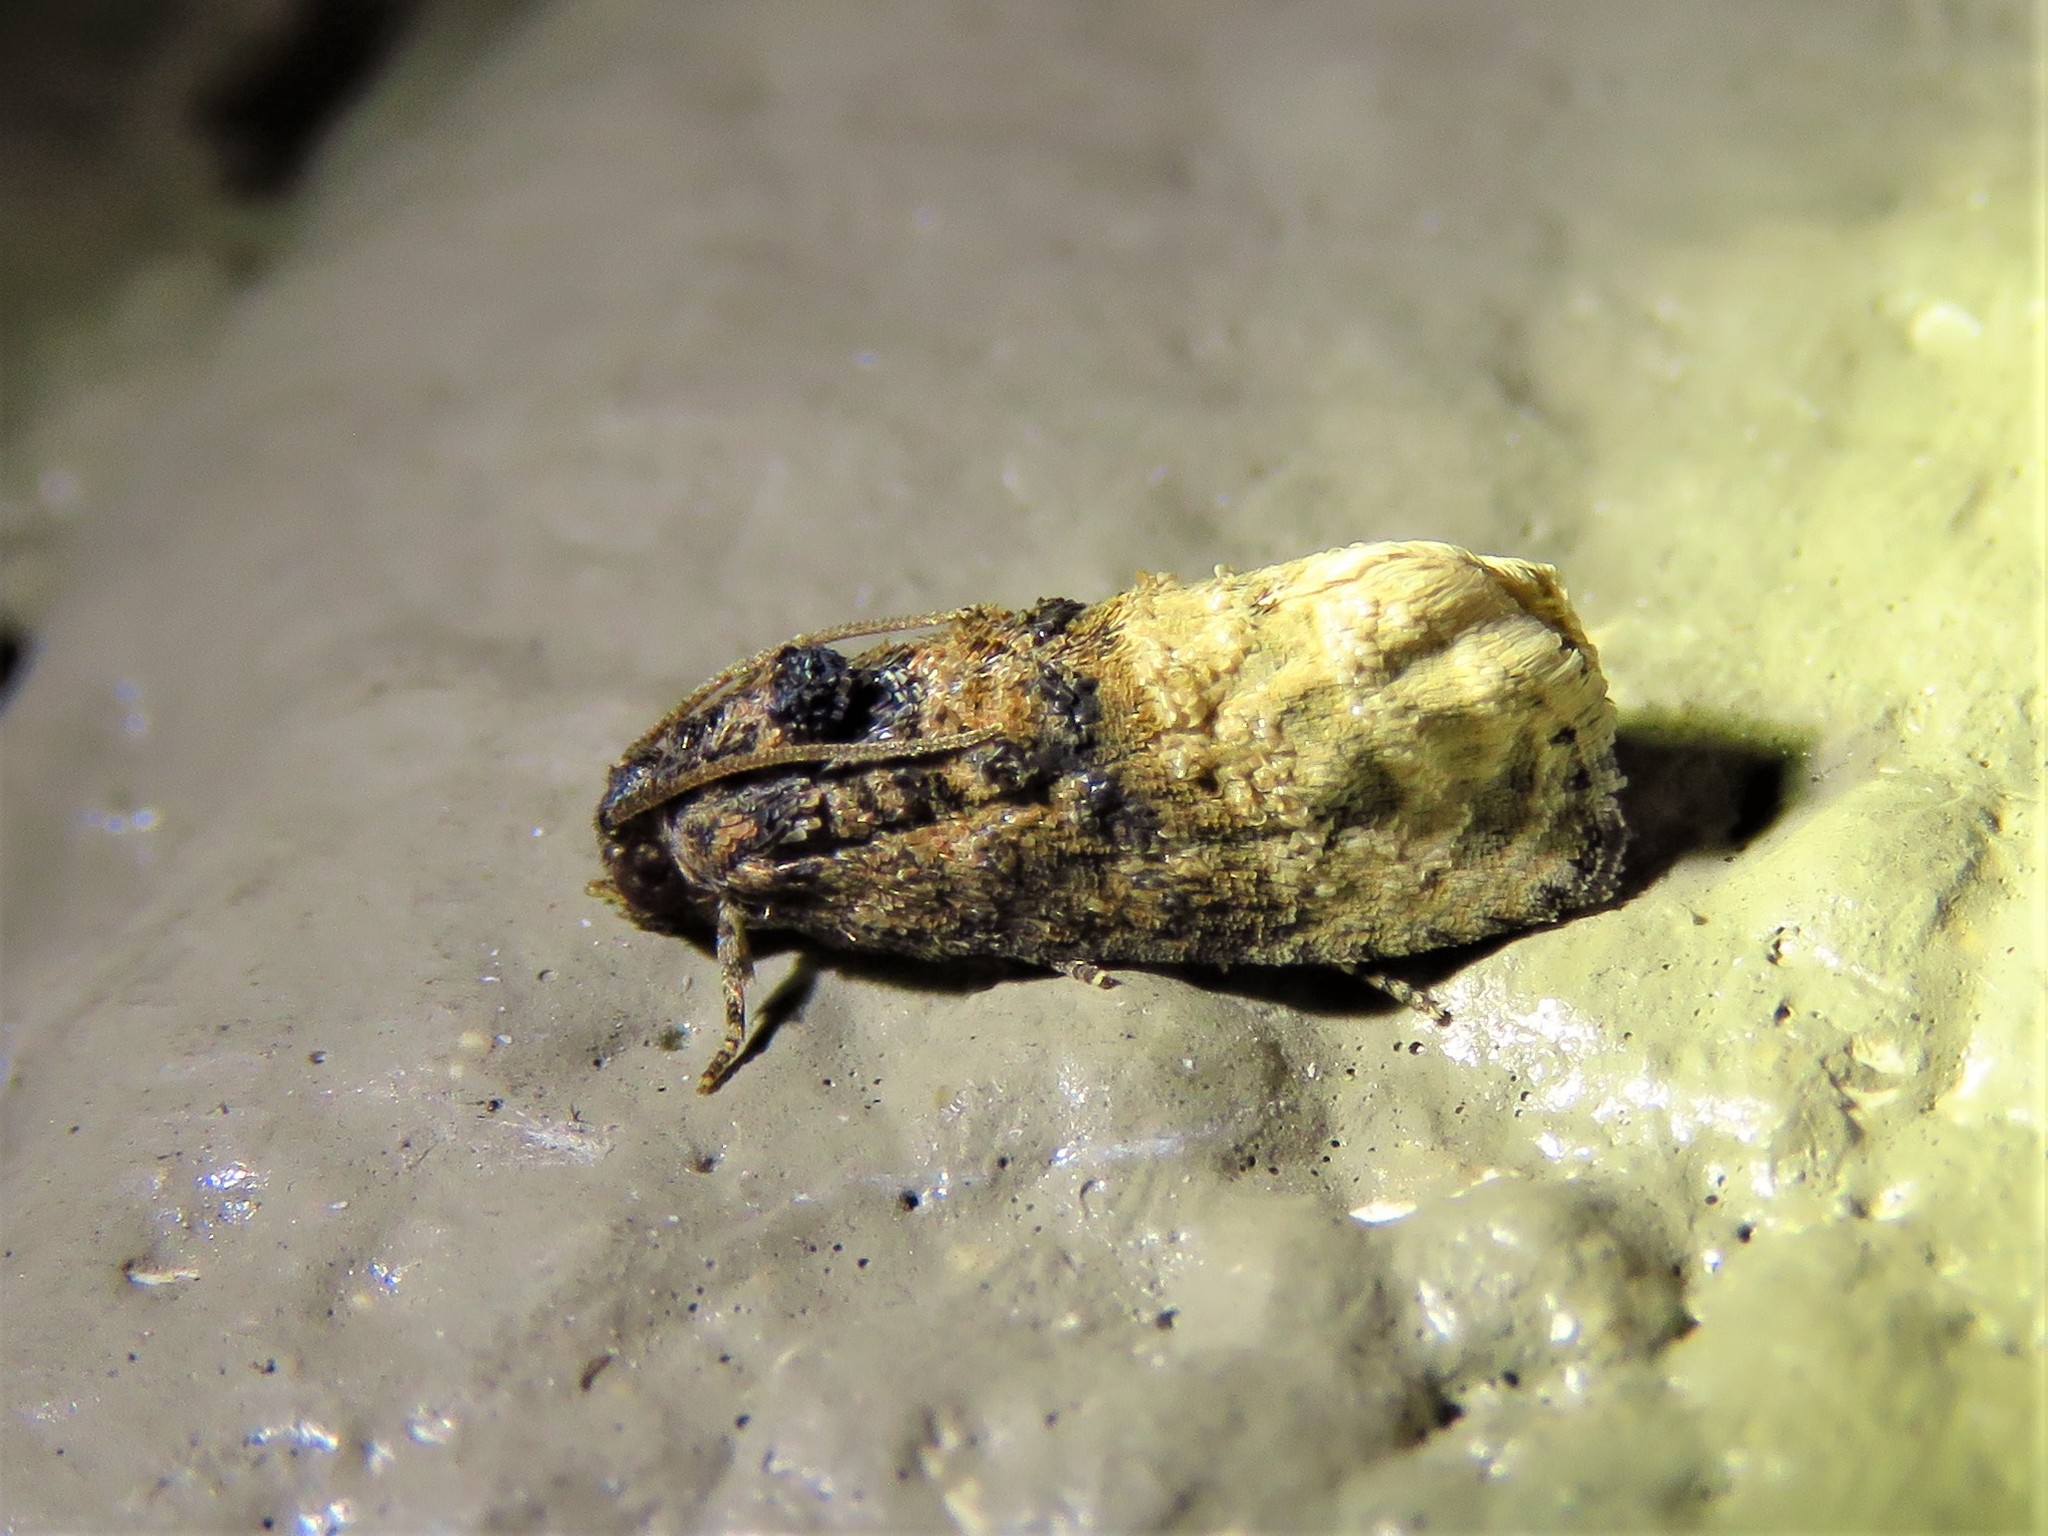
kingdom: Animalia
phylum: Arthropoda
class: Insecta
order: Lepidoptera
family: Tortricidae
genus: Ecdytolopha
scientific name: Ecdytolopha mana
